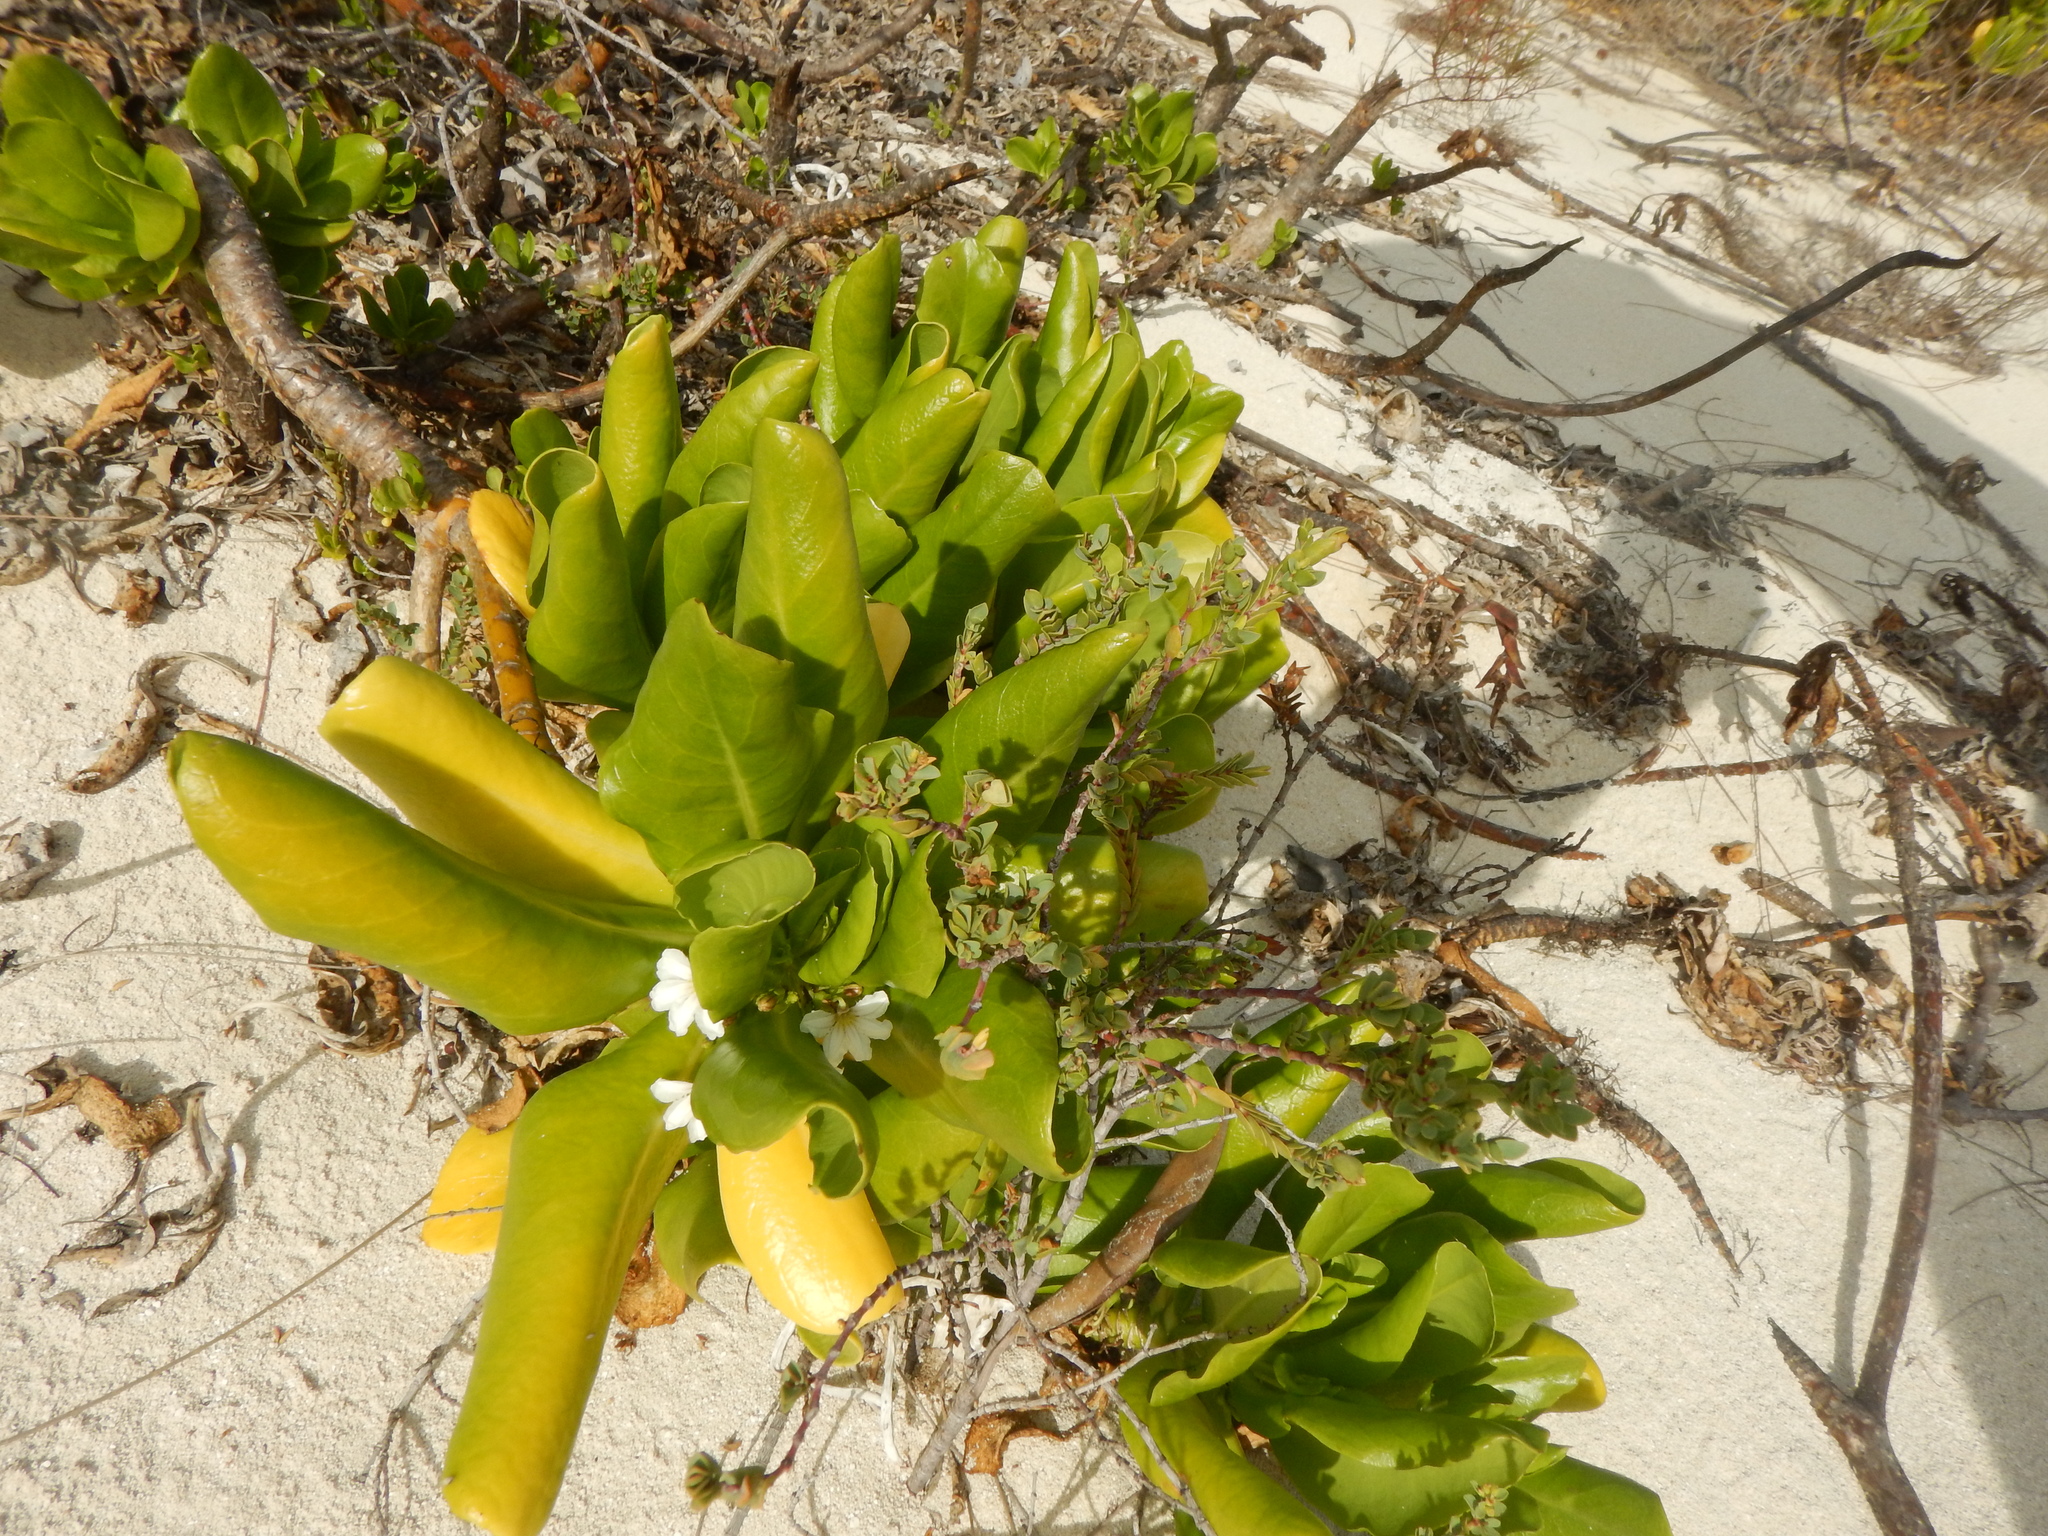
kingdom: Plantae
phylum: Tracheophyta
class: Magnoliopsida
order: Asterales
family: Goodeniaceae
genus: Scaevola
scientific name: Scaevola taccada
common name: Sea lettucetree
